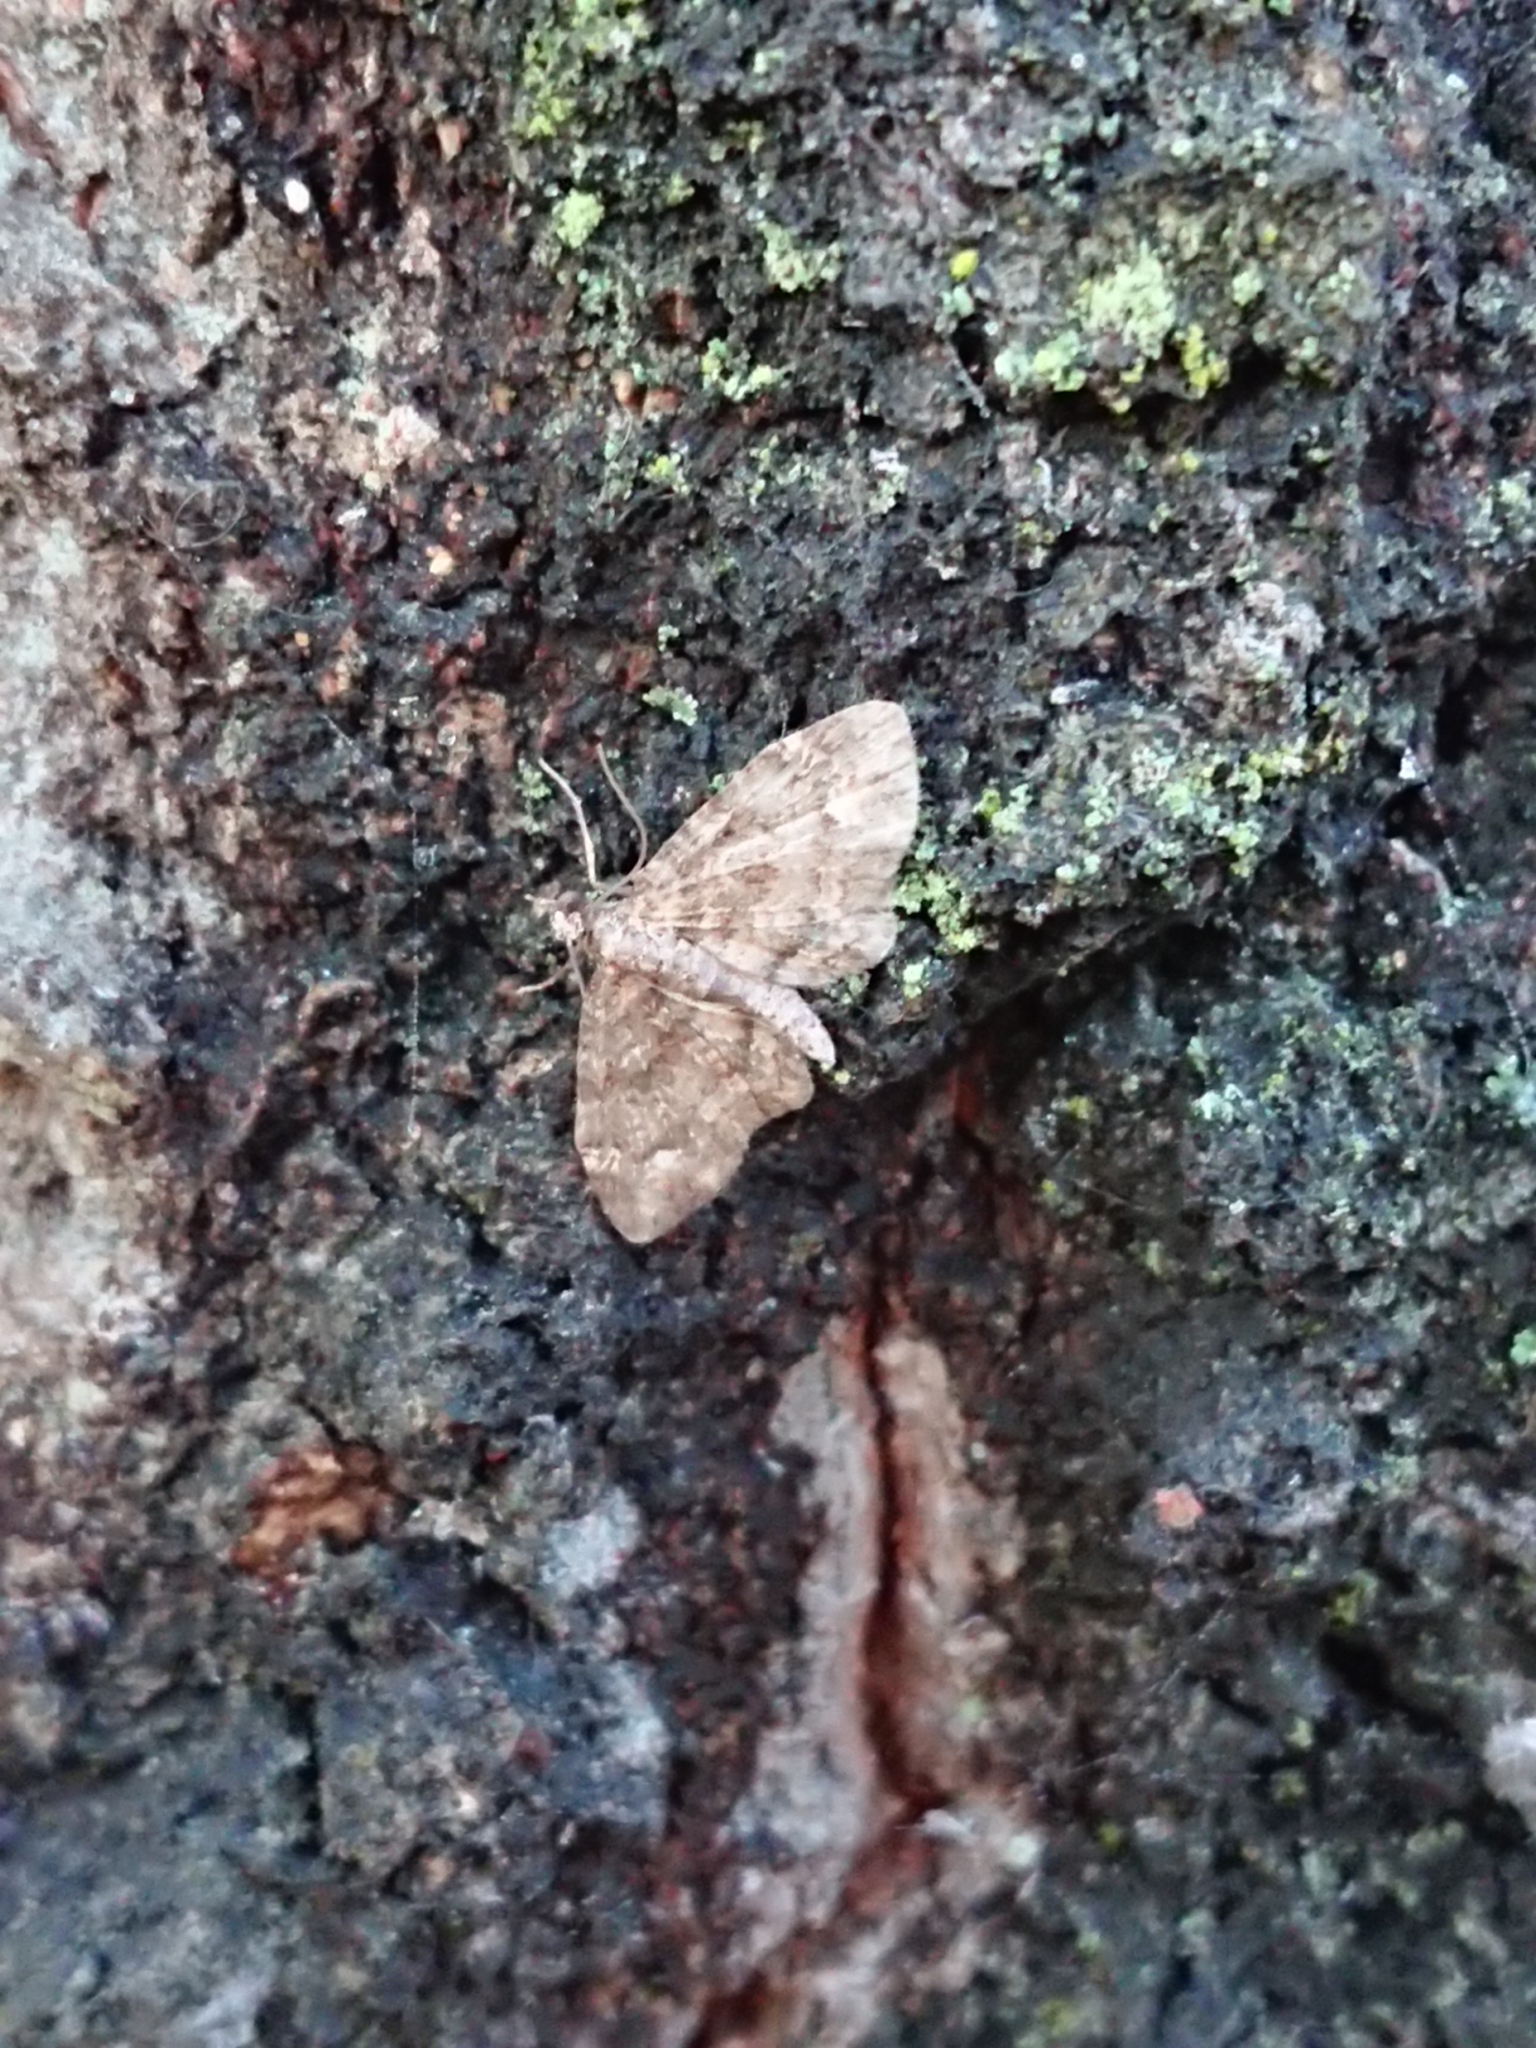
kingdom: Animalia
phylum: Arthropoda
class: Insecta
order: Lepidoptera
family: Geometridae
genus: Pasiphilodes
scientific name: Pasiphilodes testulata
